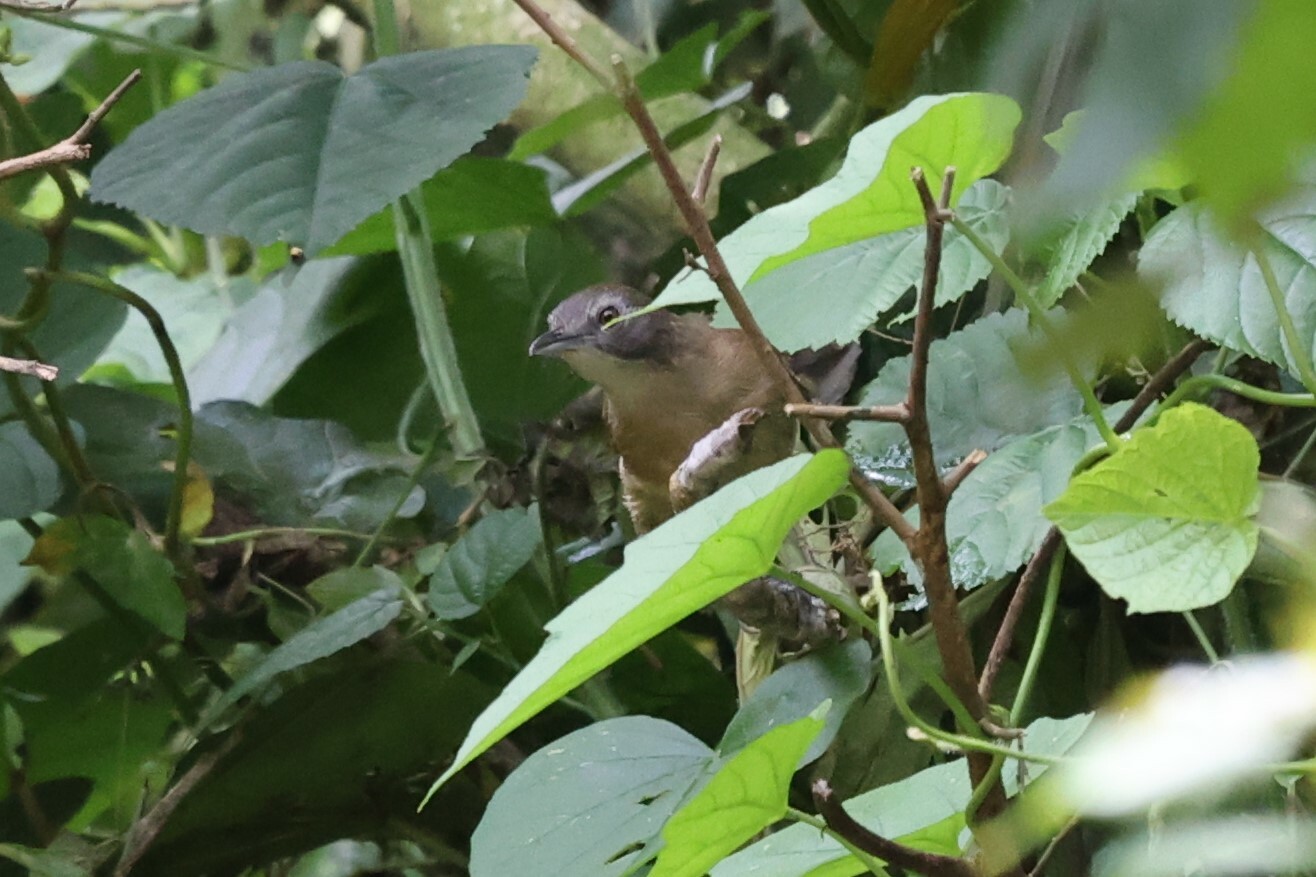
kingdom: Animalia
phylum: Chordata
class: Aves
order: Passeriformes
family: Pellorneidae
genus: Illadopsis
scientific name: Illadopsis
